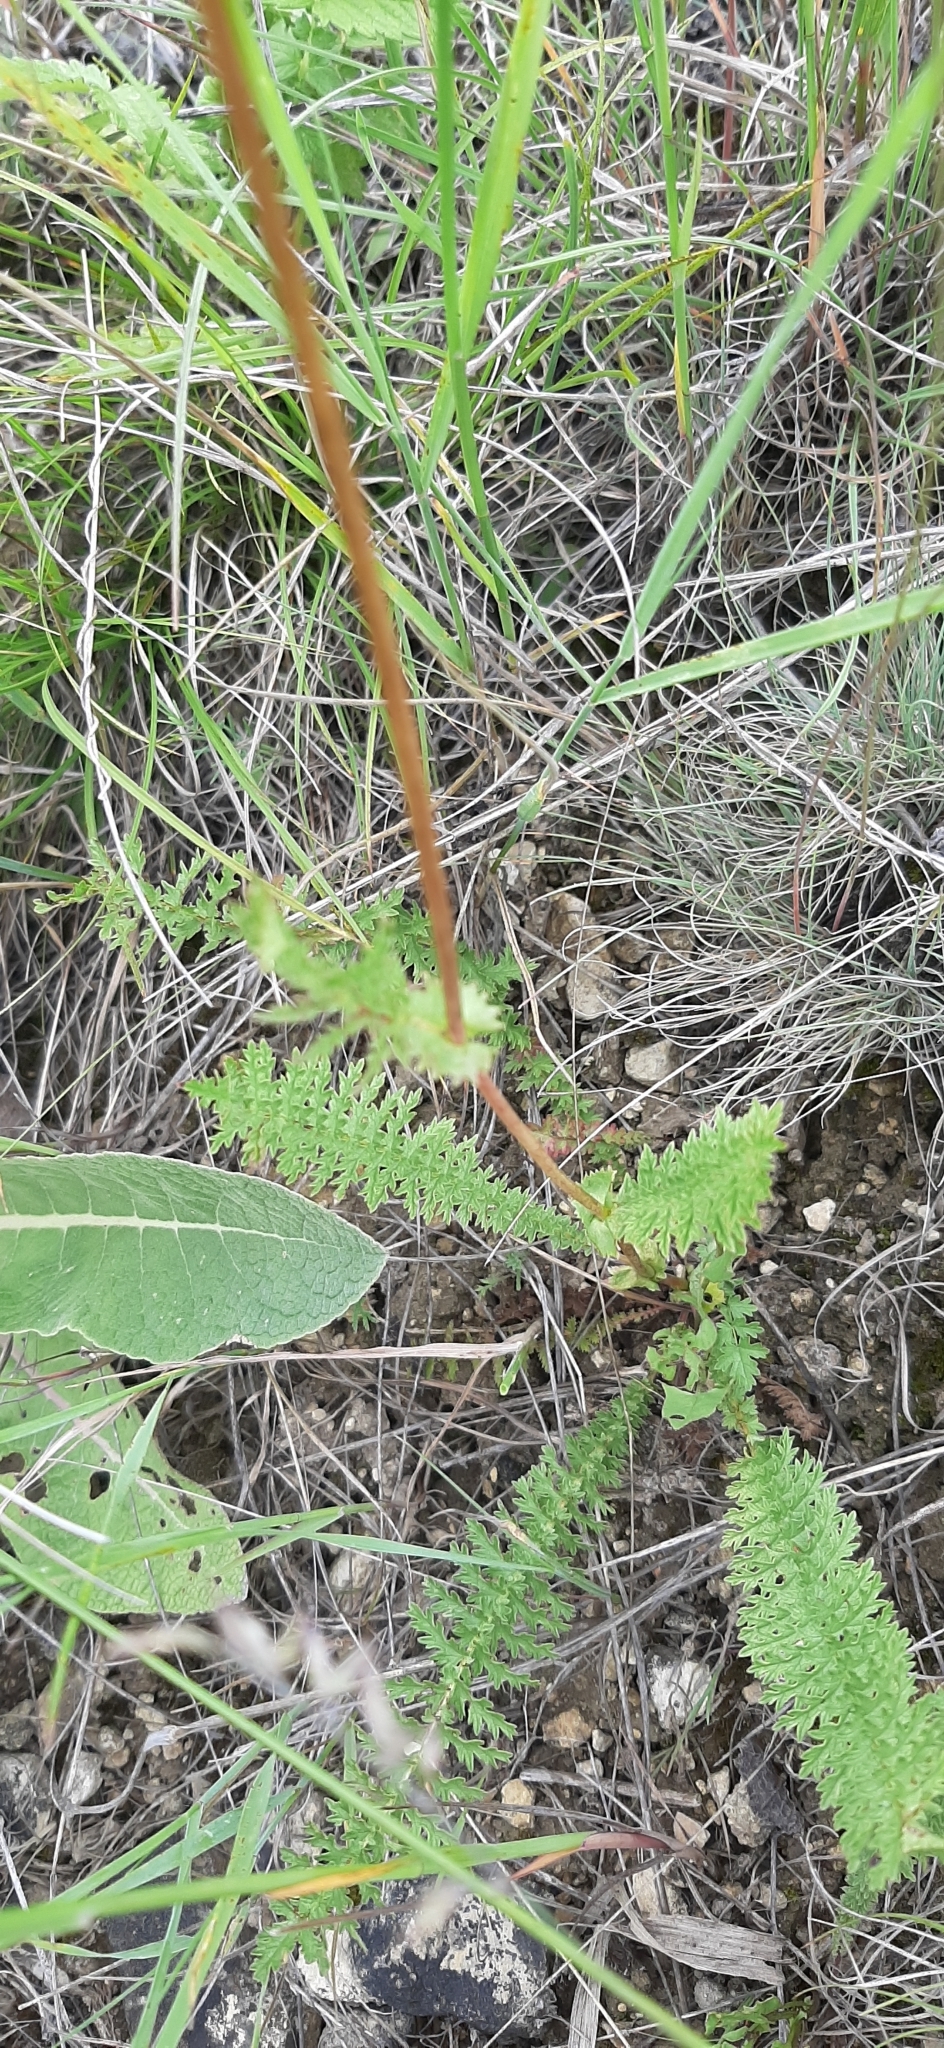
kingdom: Plantae
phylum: Tracheophyta
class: Magnoliopsida
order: Rosales
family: Rosaceae
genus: Filipendula
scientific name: Filipendula vulgaris
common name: Dropwort
